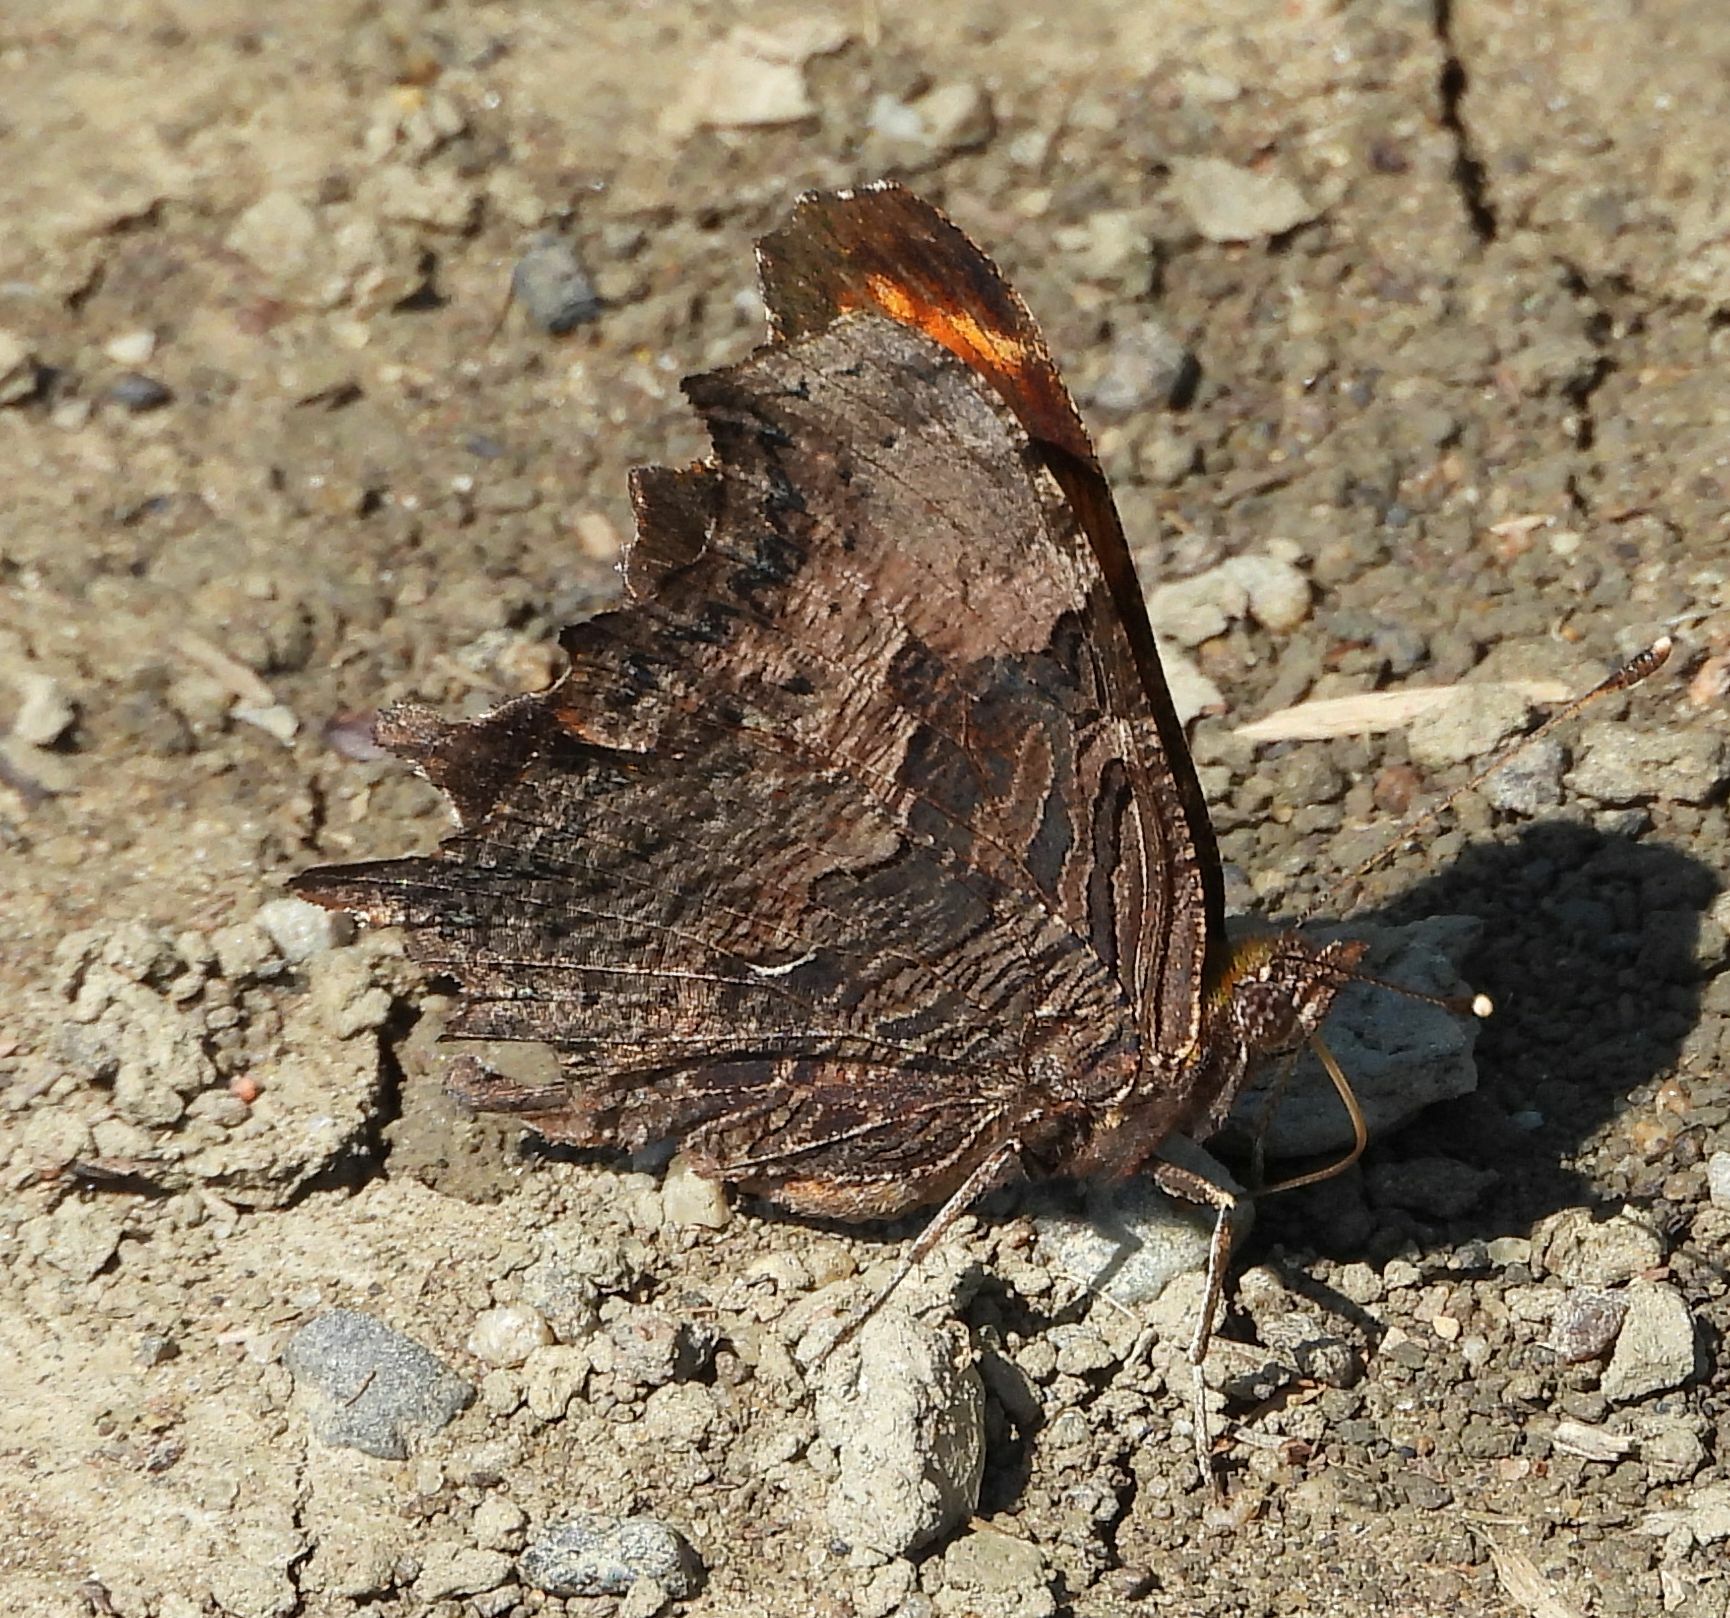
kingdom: Animalia
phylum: Arthropoda
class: Insecta
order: Lepidoptera
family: Nymphalidae
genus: Polygonia
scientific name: Polygonia progne
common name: Gray comma
